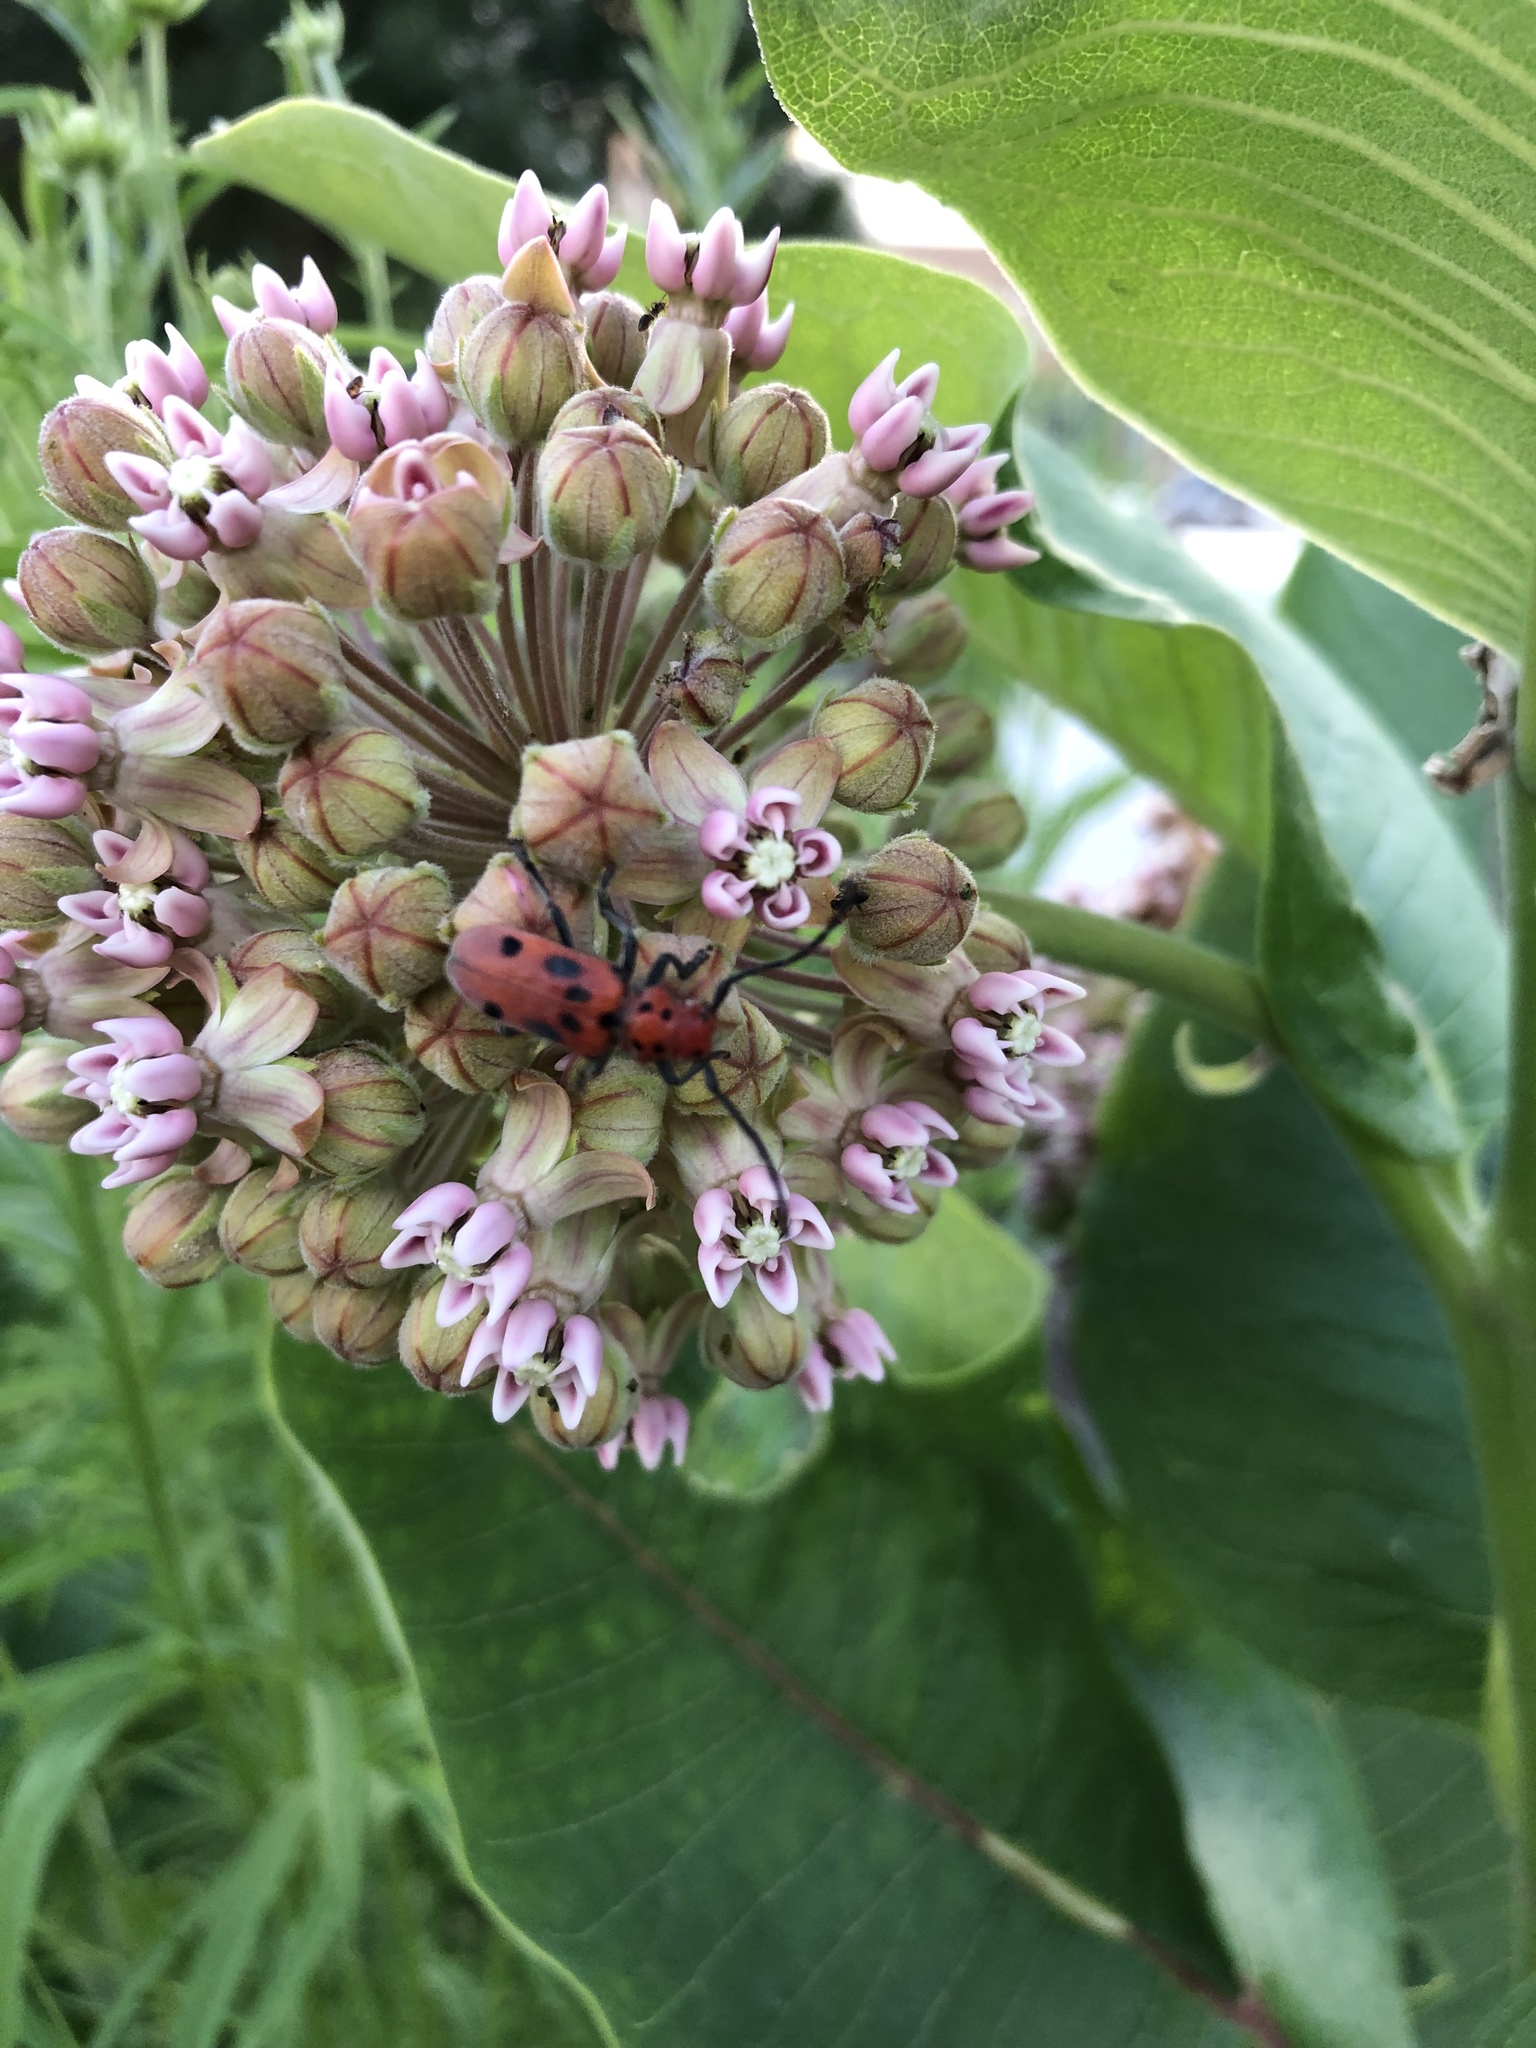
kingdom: Animalia
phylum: Arthropoda
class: Insecta
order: Coleoptera
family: Cerambycidae
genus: Tetraopes
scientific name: Tetraopes tetrophthalmus
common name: Red milkweed beetle
